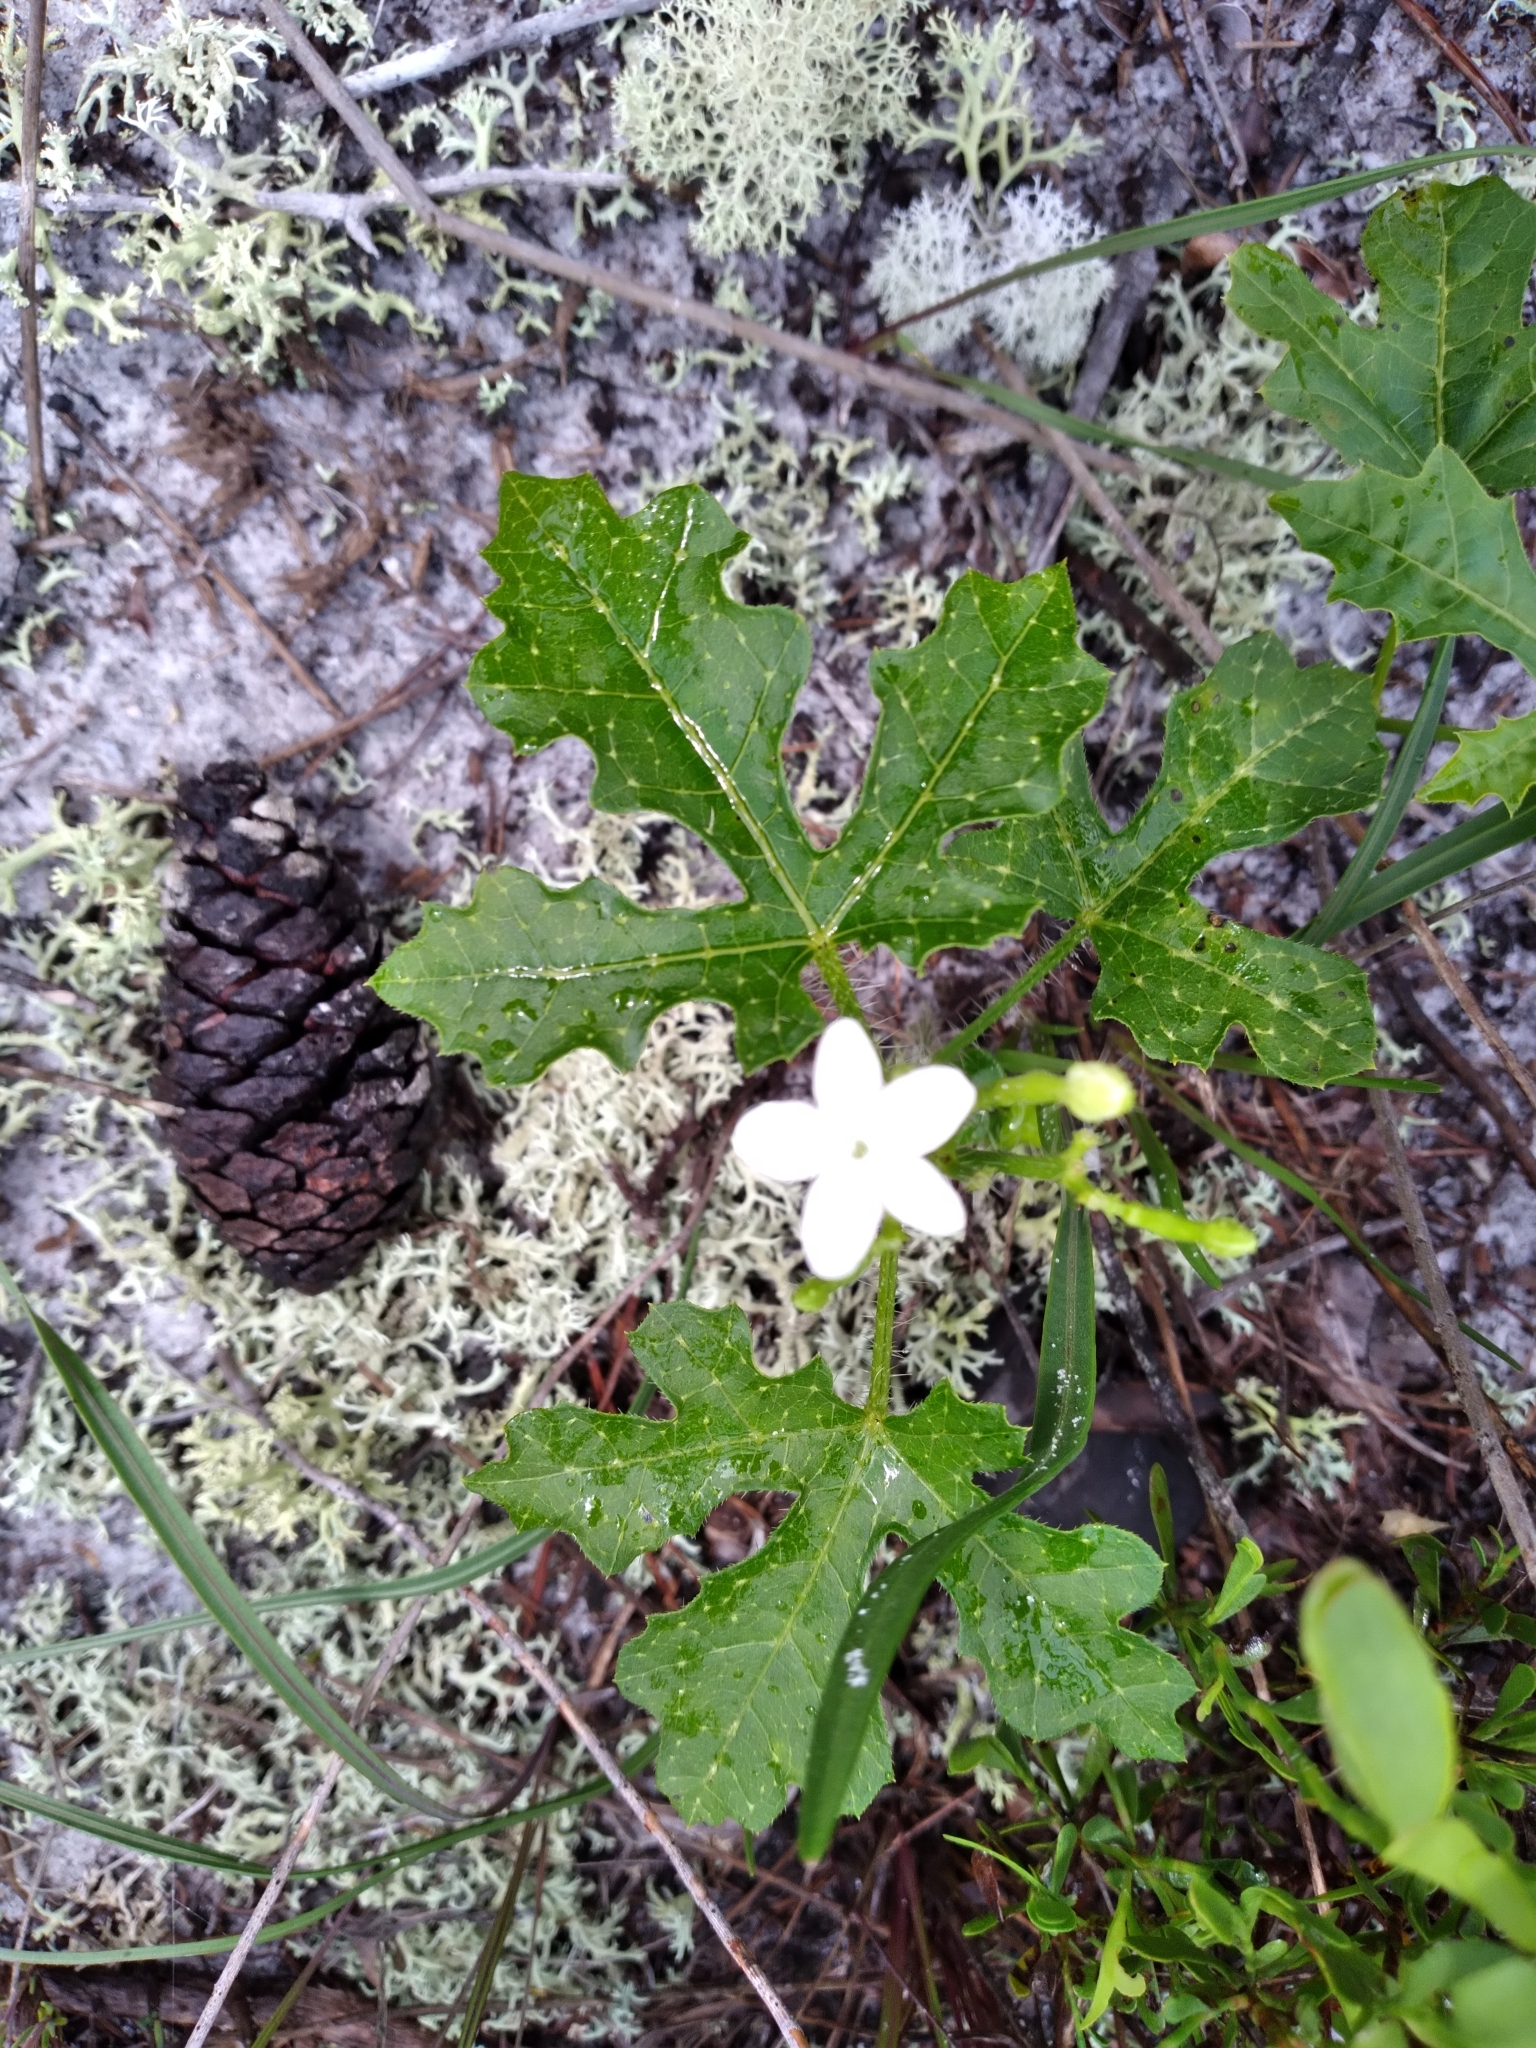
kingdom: Plantae
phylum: Tracheophyta
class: Magnoliopsida
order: Malpighiales
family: Euphorbiaceae
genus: Cnidoscolus
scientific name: Cnidoscolus stimulosus
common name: Bull-nettle
